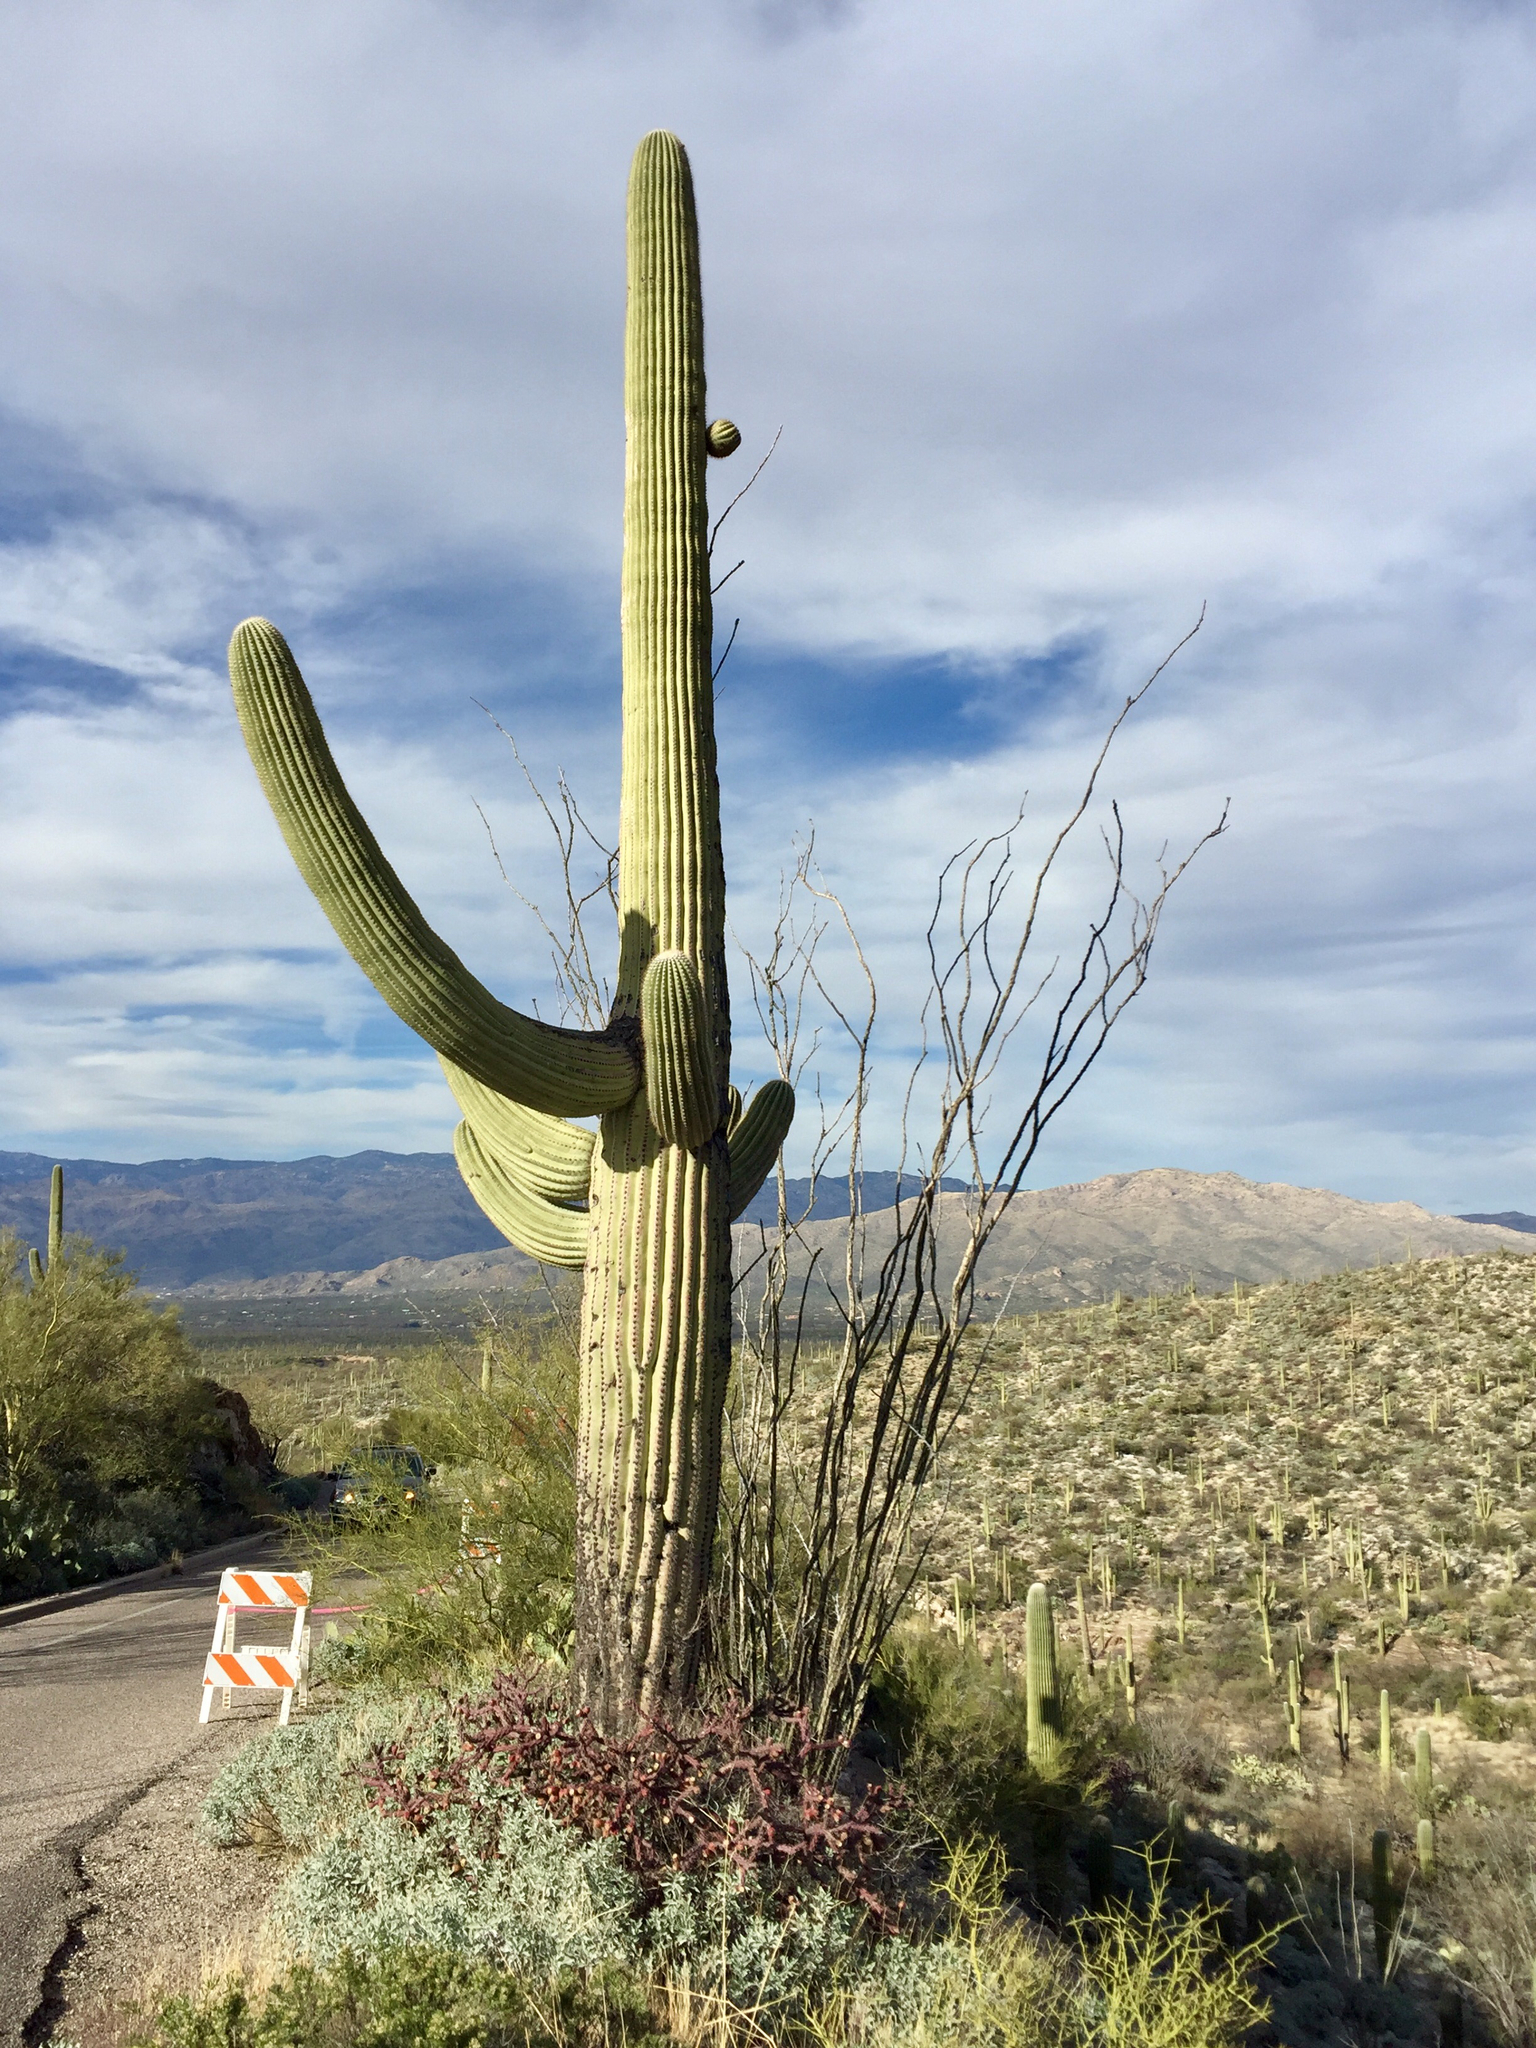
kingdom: Plantae
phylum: Tracheophyta
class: Magnoliopsida
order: Caryophyllales
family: Cactaceae
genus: Carnegiea
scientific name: Carnegiea gigantea
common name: Saguaro
